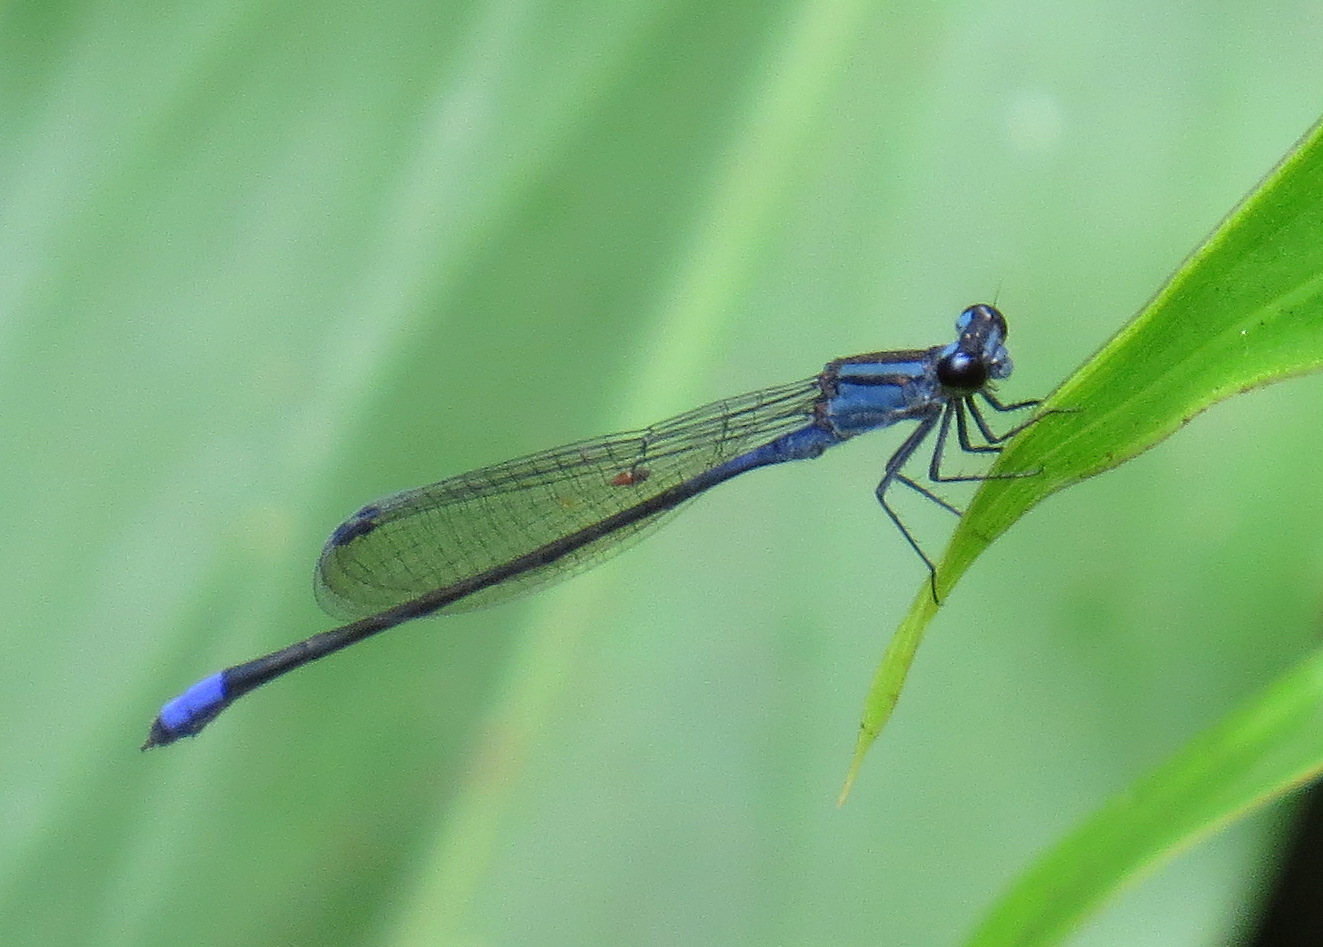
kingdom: Animalia
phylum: Arthropoda
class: Insecta
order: Odonata
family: Coenagrionidae
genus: Enallagma
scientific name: Enallagma coecum
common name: Antillean bluet
